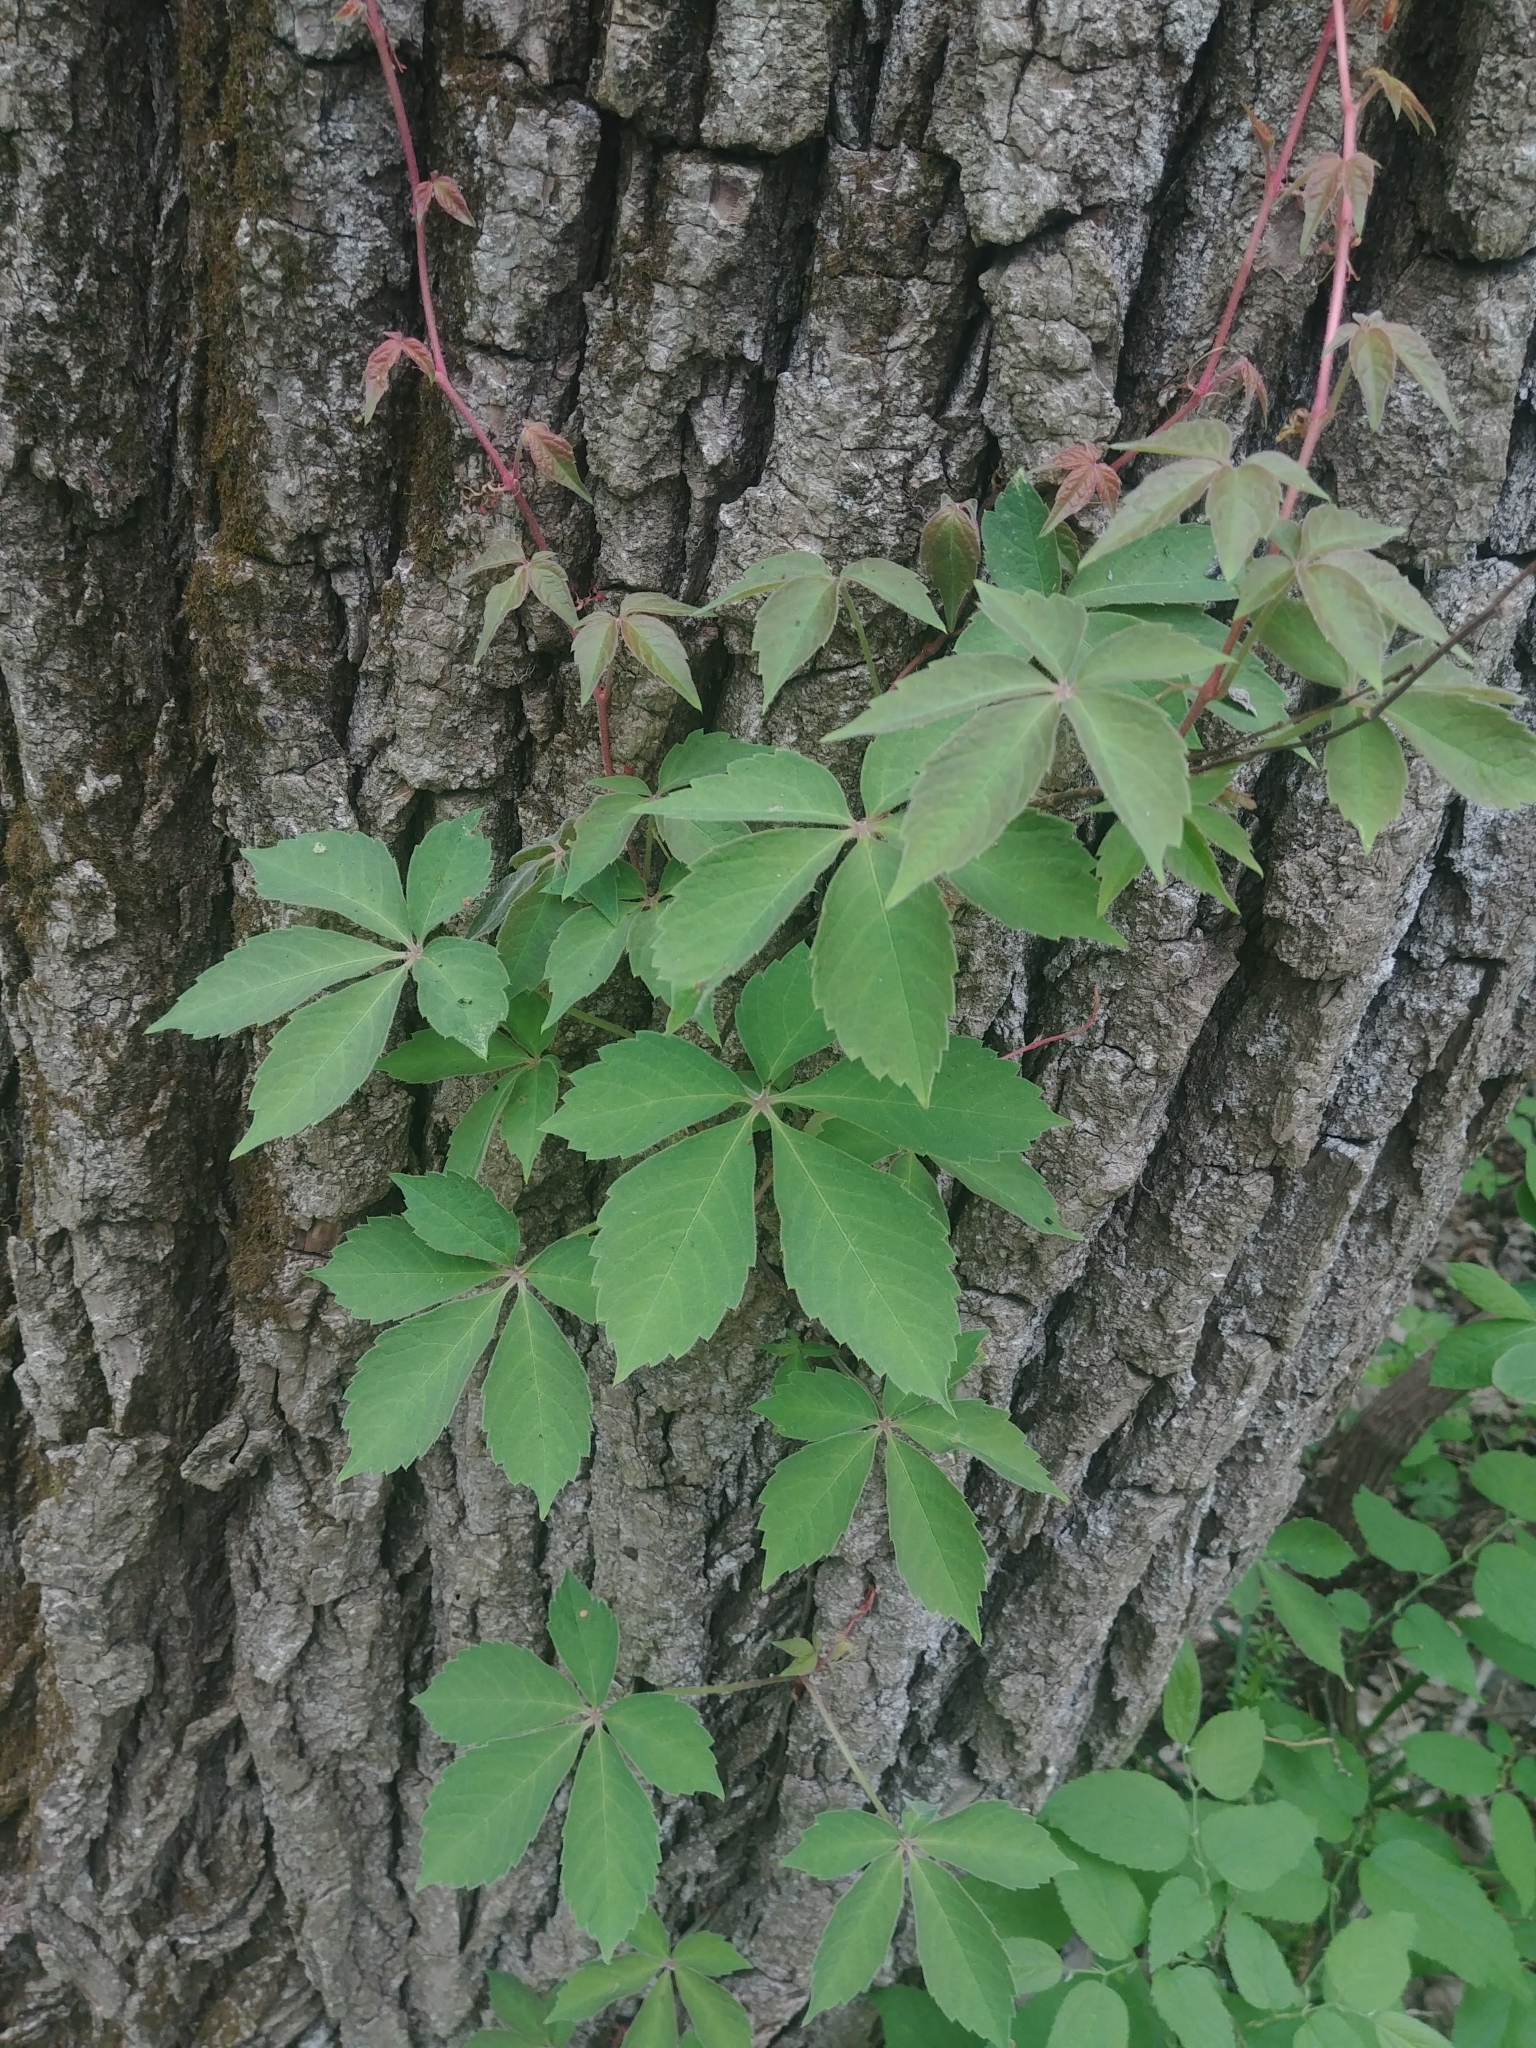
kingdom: Plantae
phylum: Tracheophyta
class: Magnoliopsida
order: Vitales
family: Vitaceae
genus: Parthenocissus
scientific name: Parthenocissus quinquefolia
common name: Virginia-creeper
